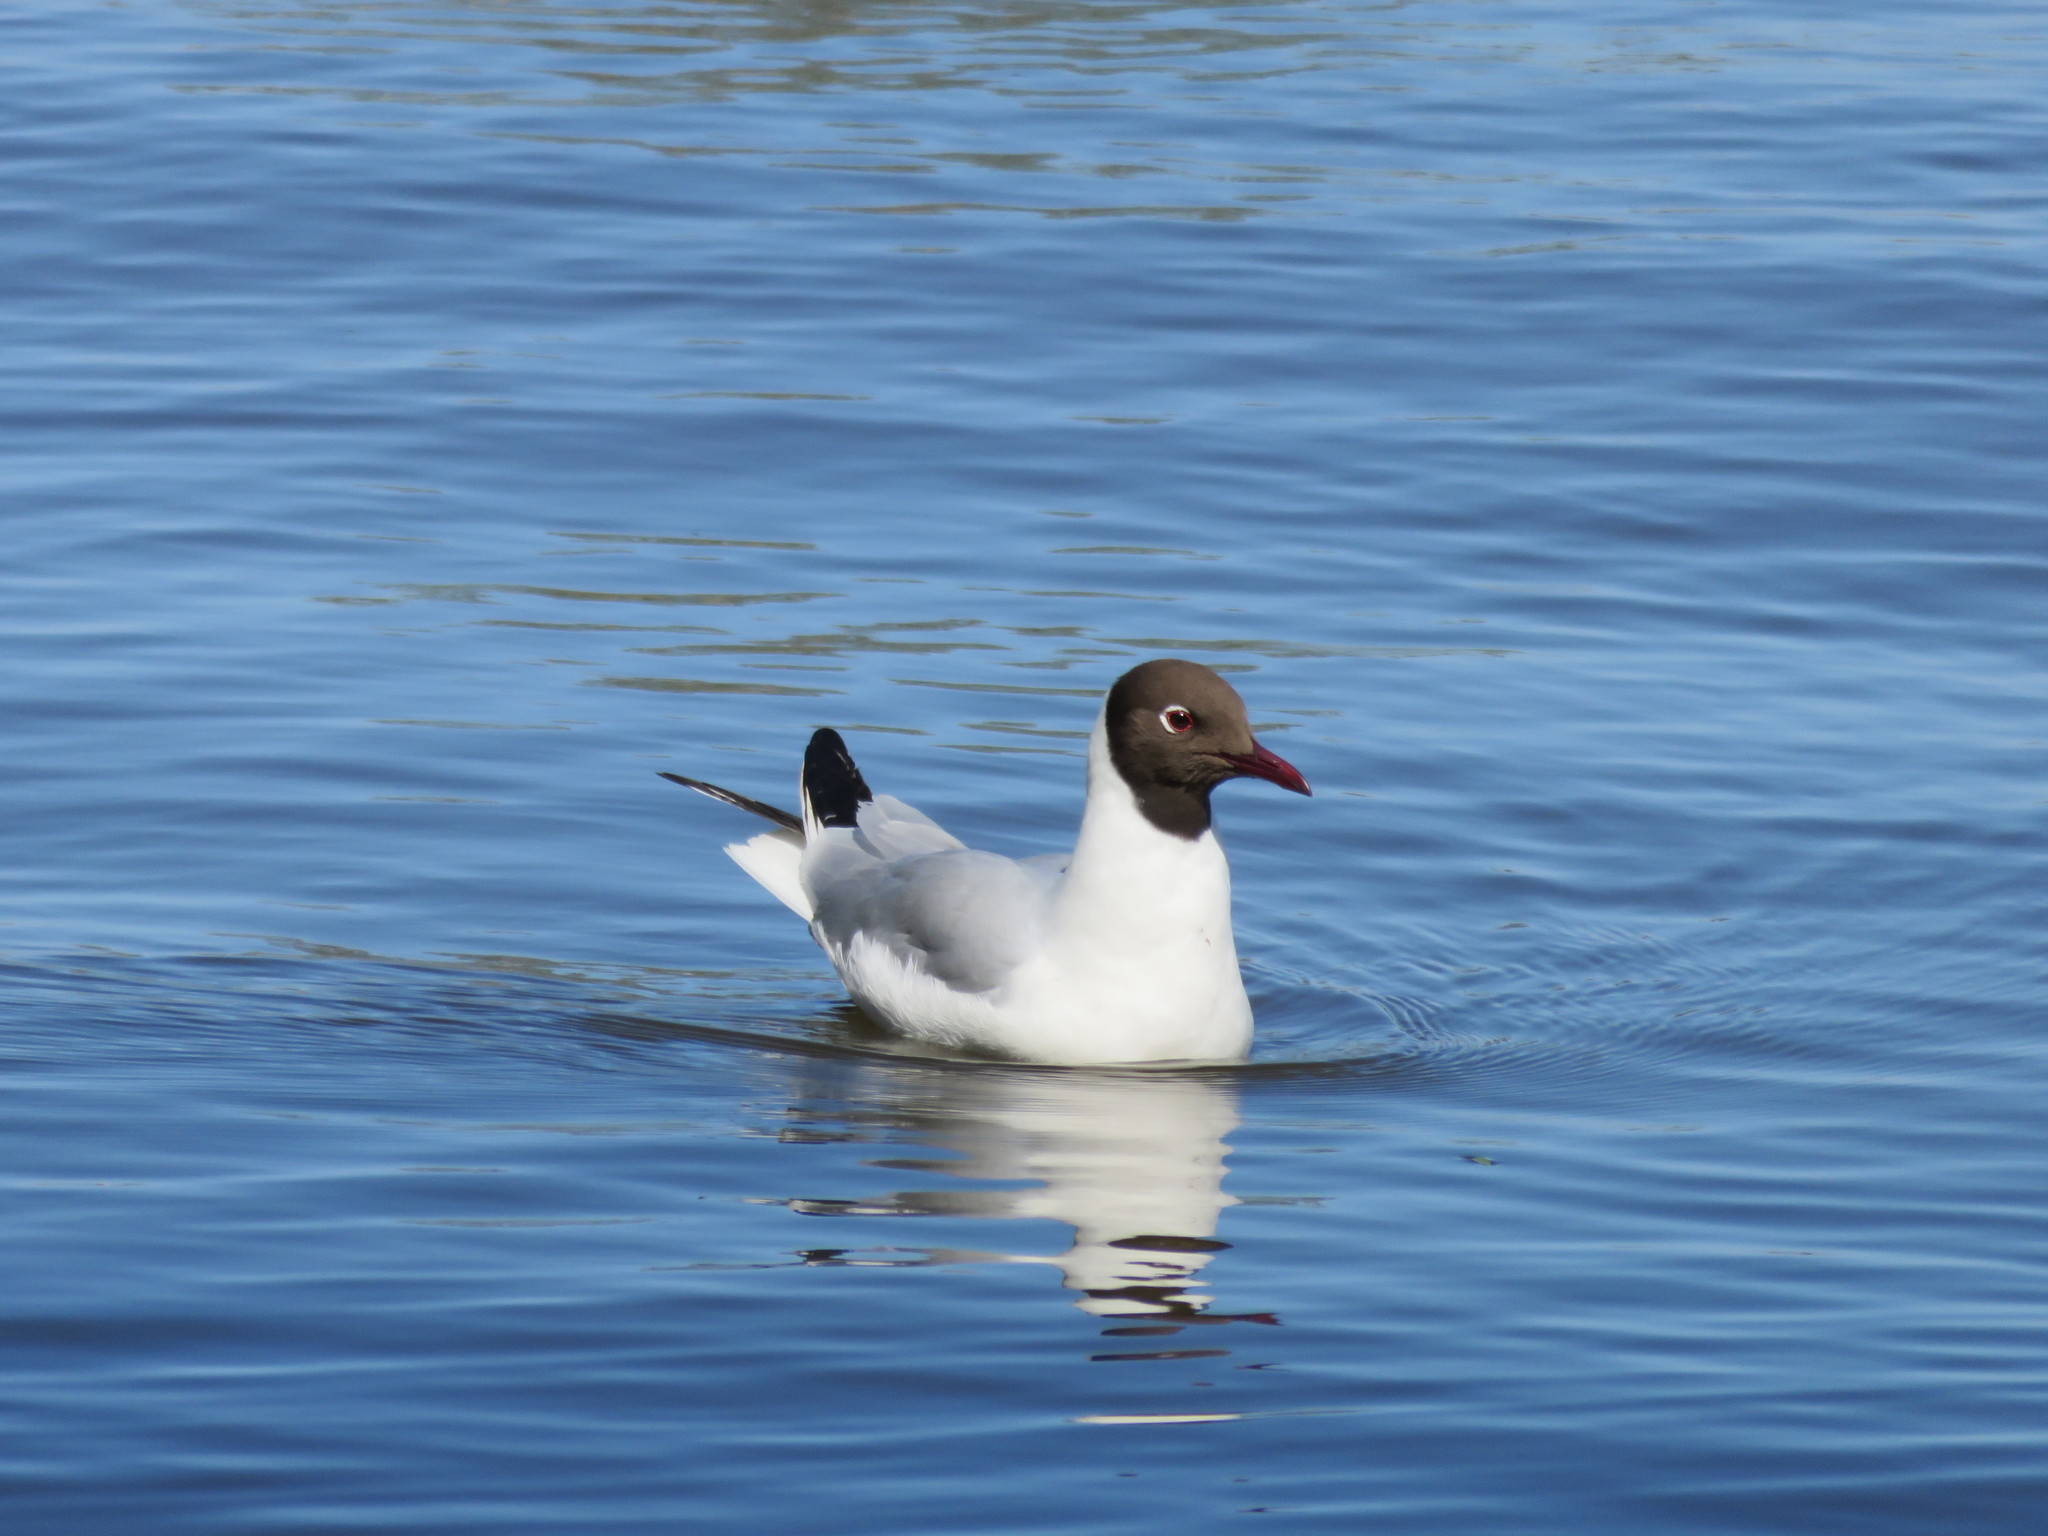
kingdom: Animalia
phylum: Chordata
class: Aves
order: Charadriiformes
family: Laridae
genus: Chroicocephalus
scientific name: Chroicocephalus ridibundus
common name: Black-headed gull
